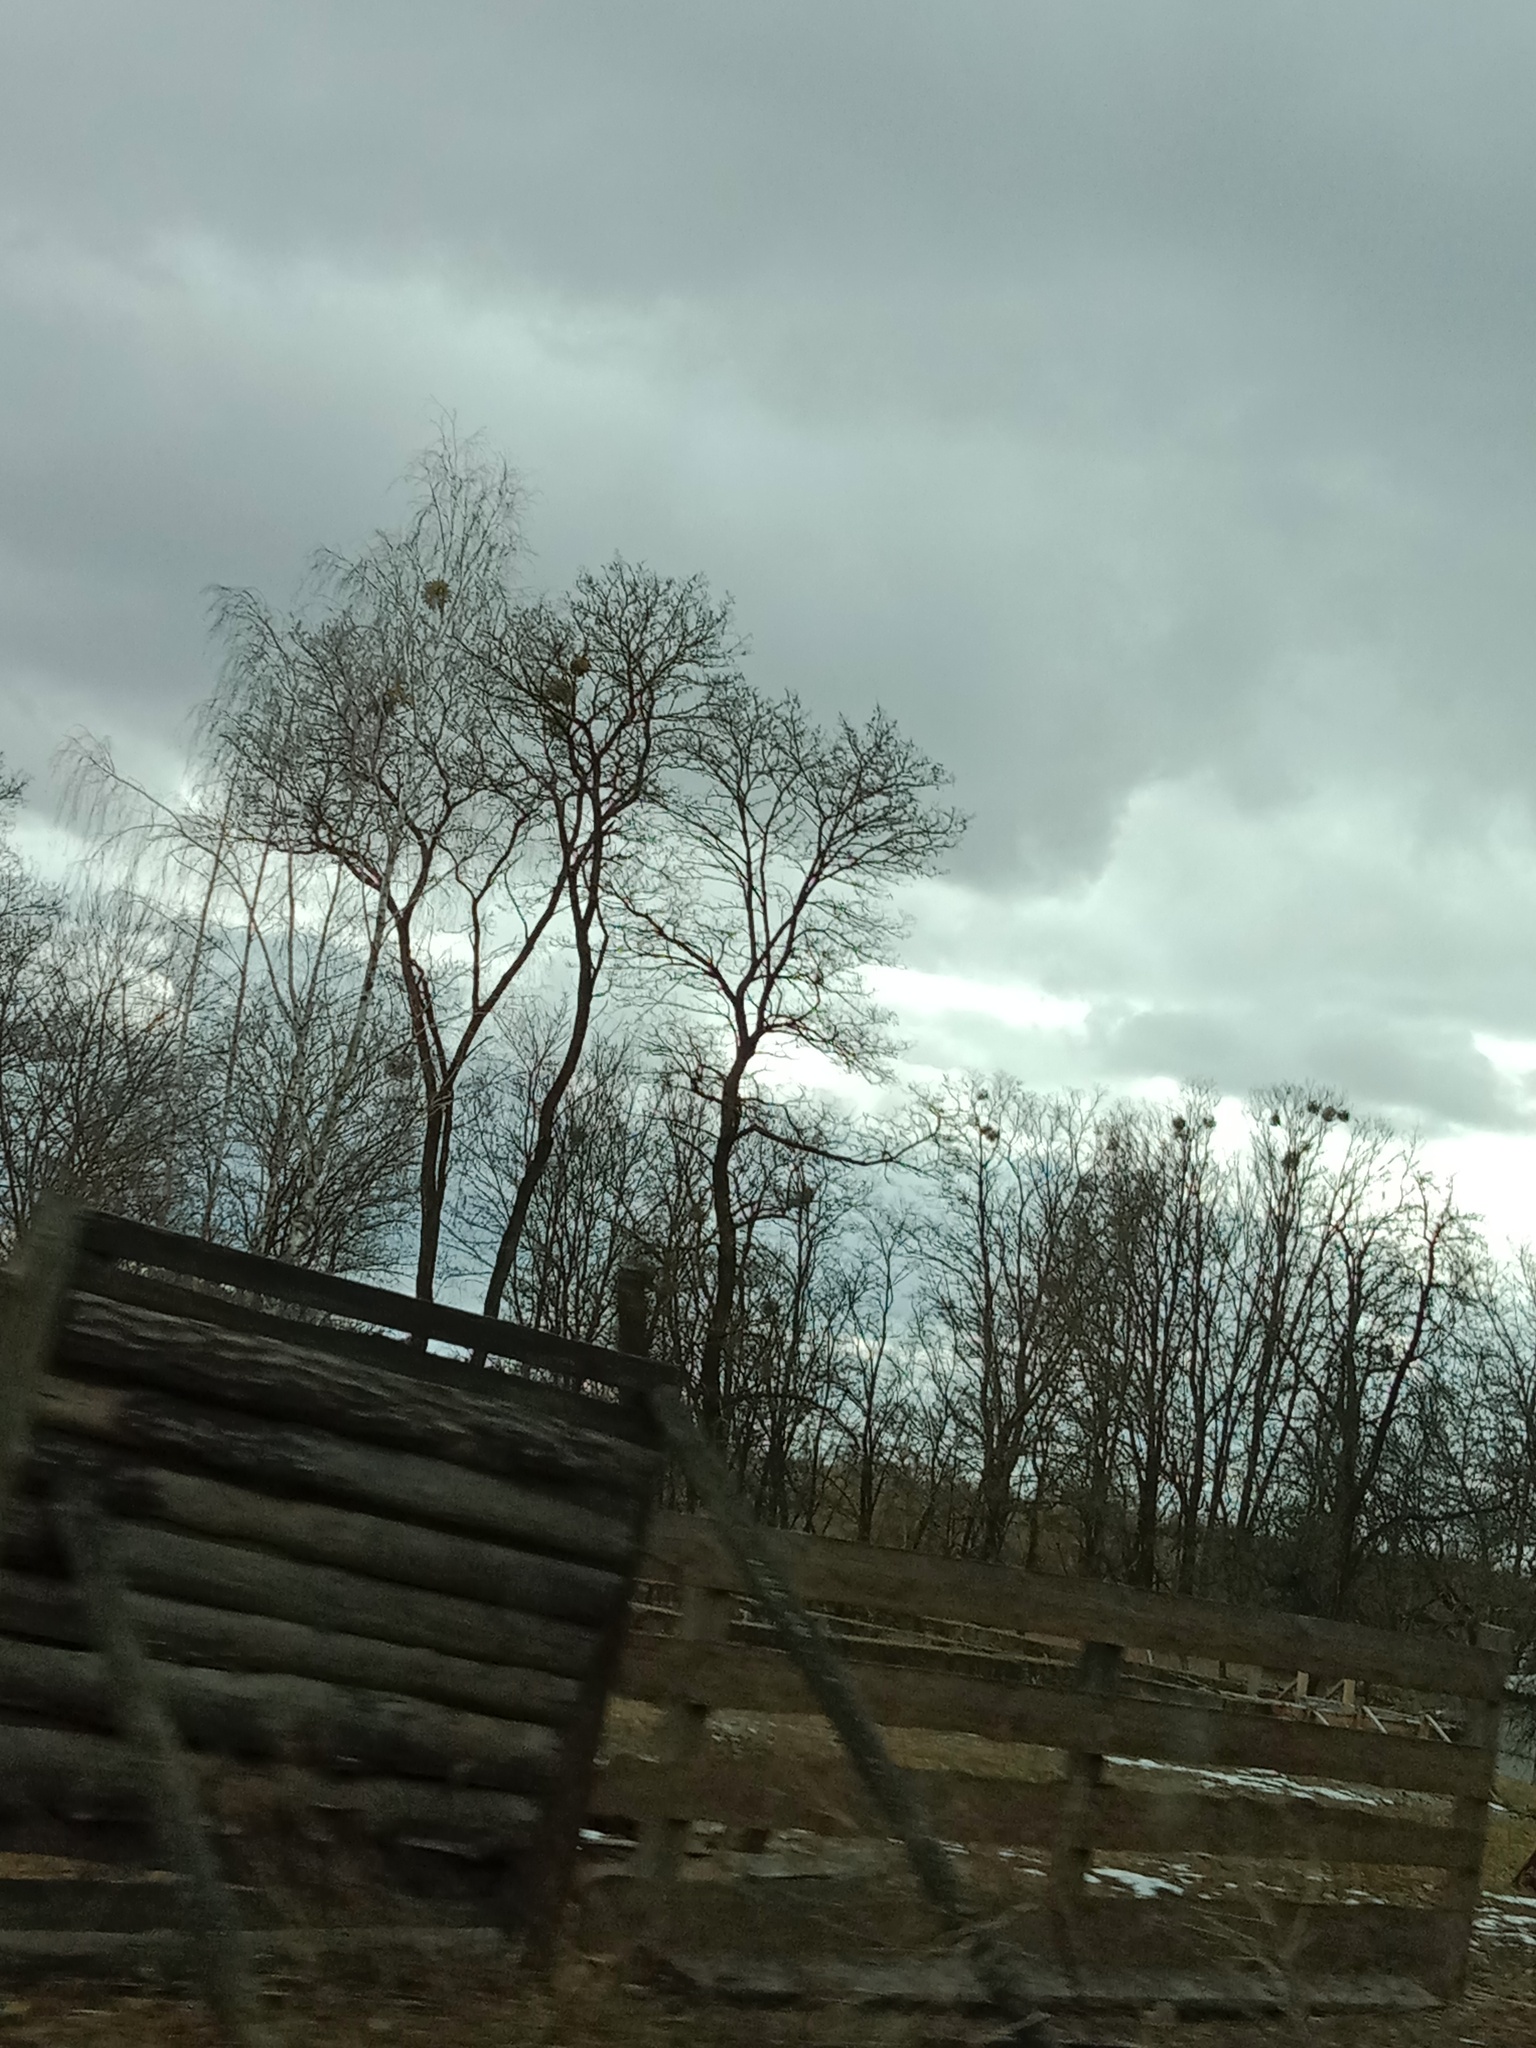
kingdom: Plantae
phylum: Tracheophyta
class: Magnoliopsida
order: Santalales
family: Viscaceae
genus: Viscum
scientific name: Viscum album
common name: Mistletoe
